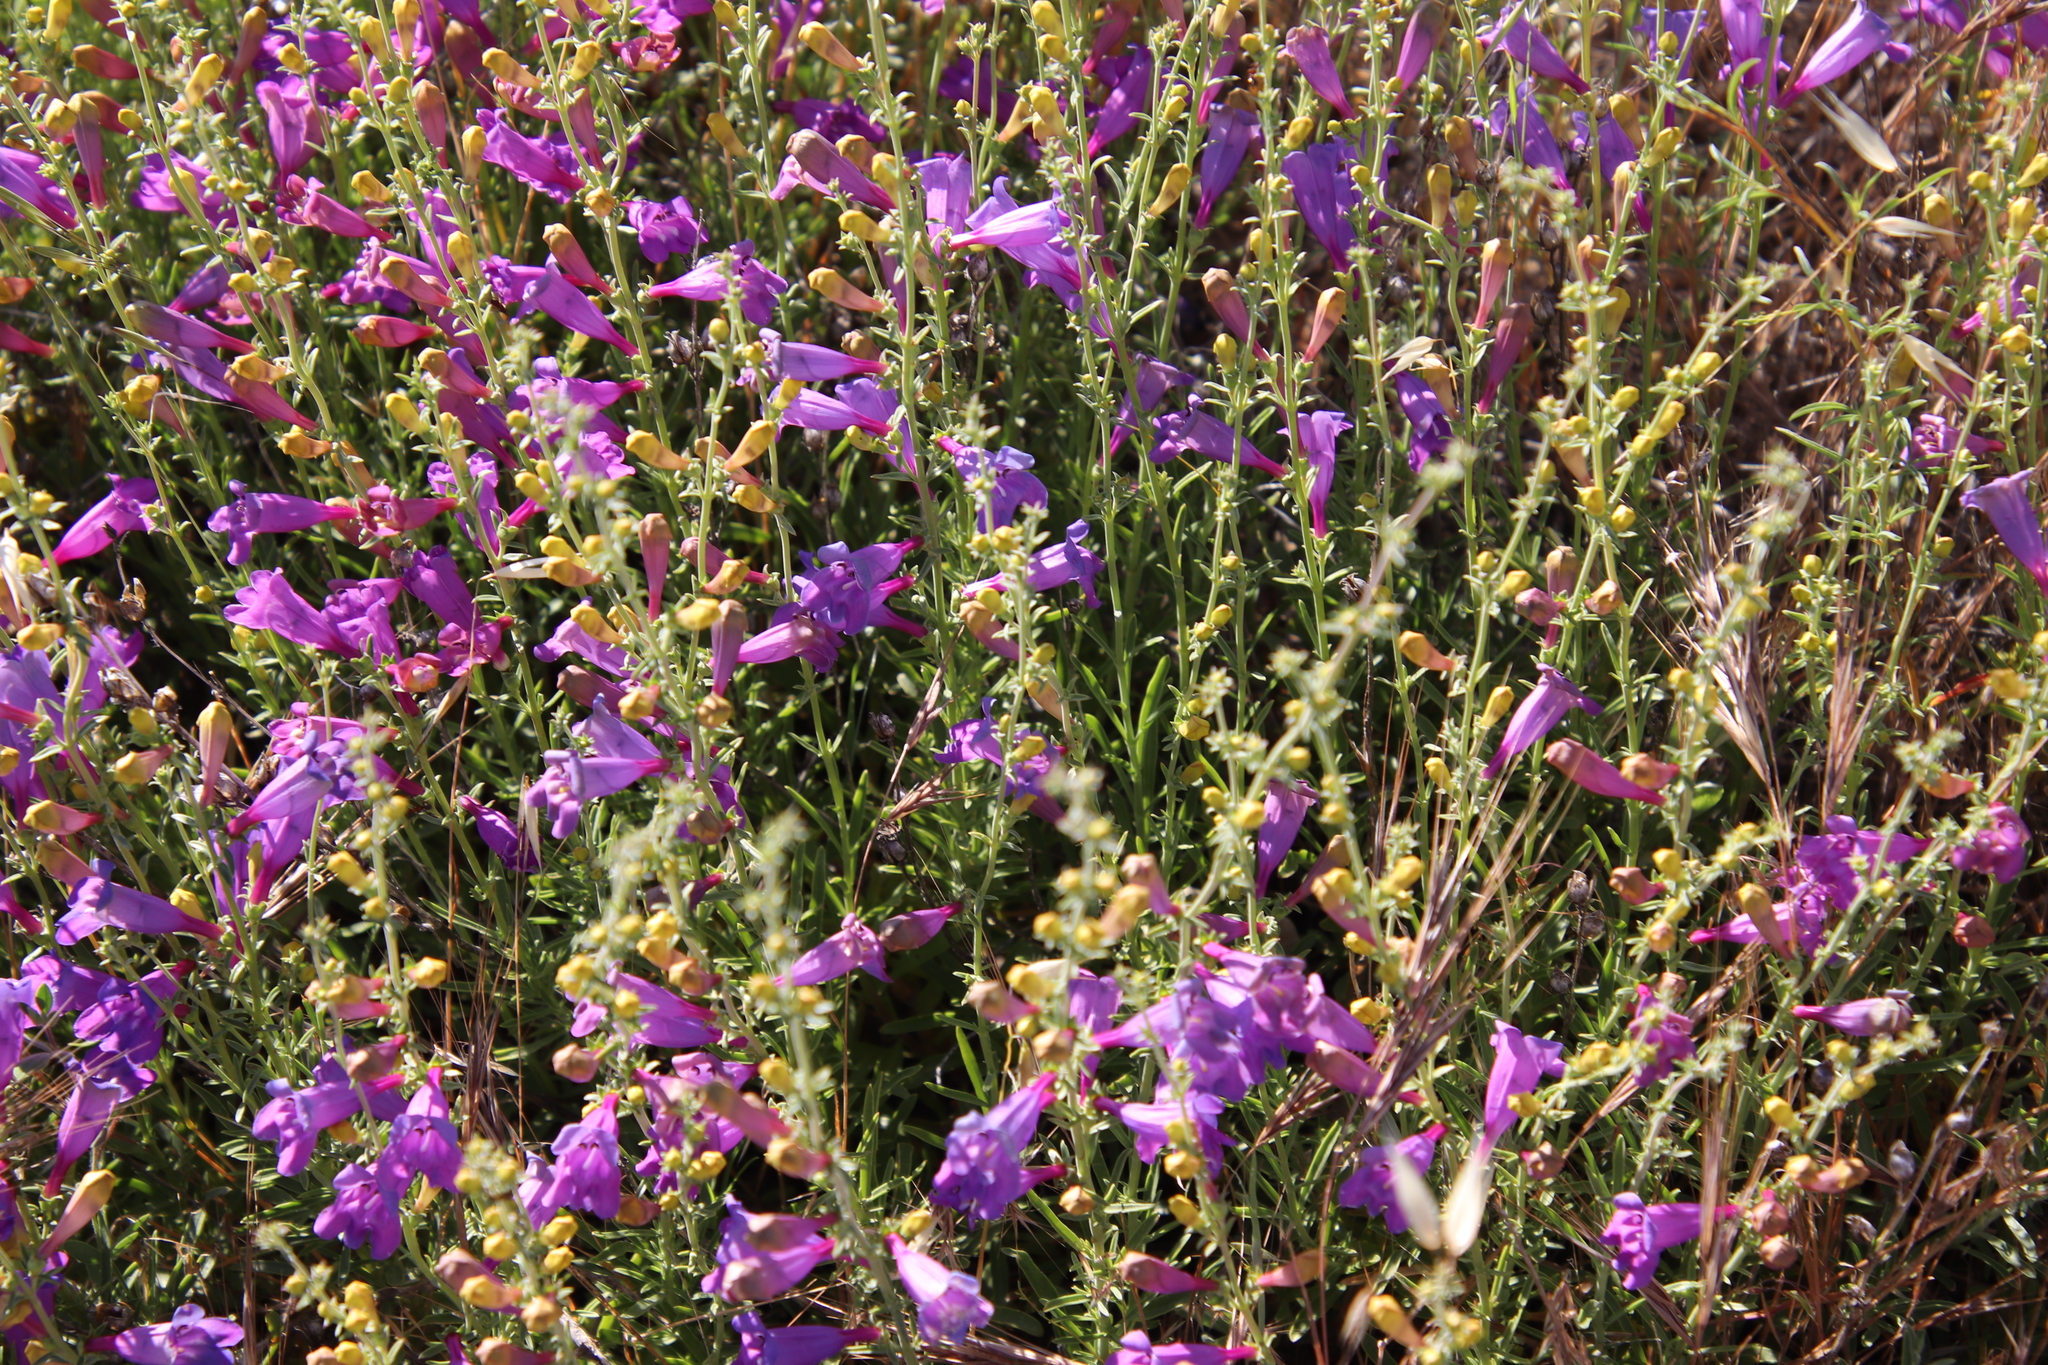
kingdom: Plantae
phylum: Tracheophyta
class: Magnoliopsida
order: Lamiales
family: Plantaginaceae
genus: Penstemon
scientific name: Penstemon heterophyllus
